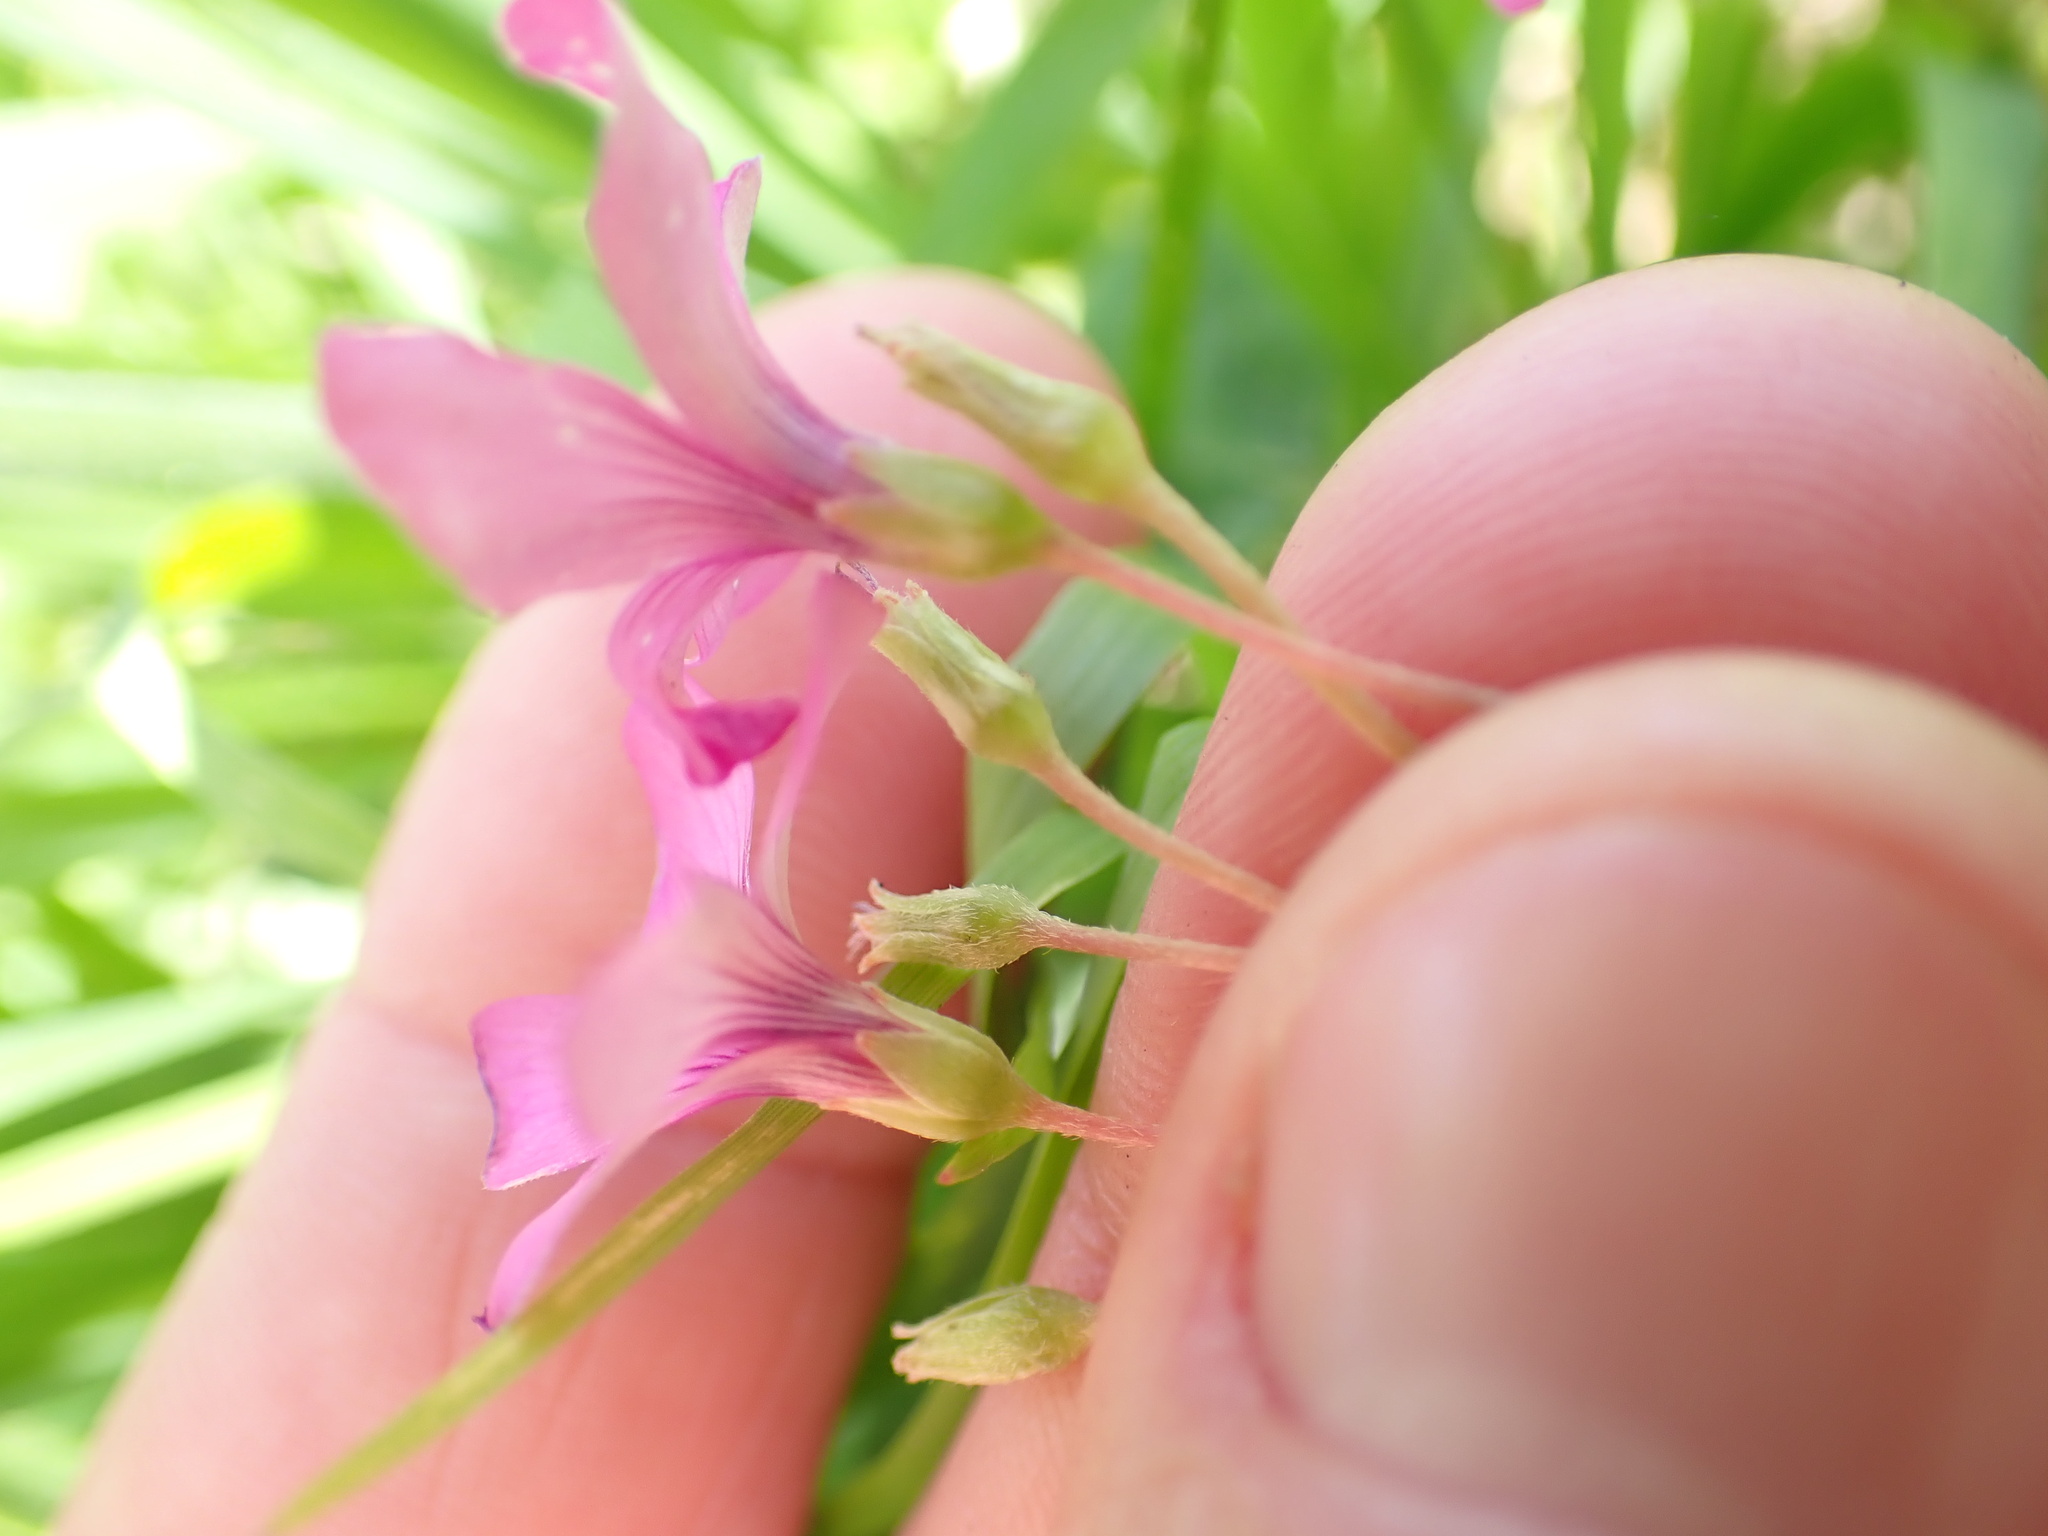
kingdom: Plantae
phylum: Tracheophyta
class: Magnoliopsida
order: Oxalidales
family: Oxalidaceae
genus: Oxalis
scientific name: Oxalis articulata
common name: Pink-sorrel
